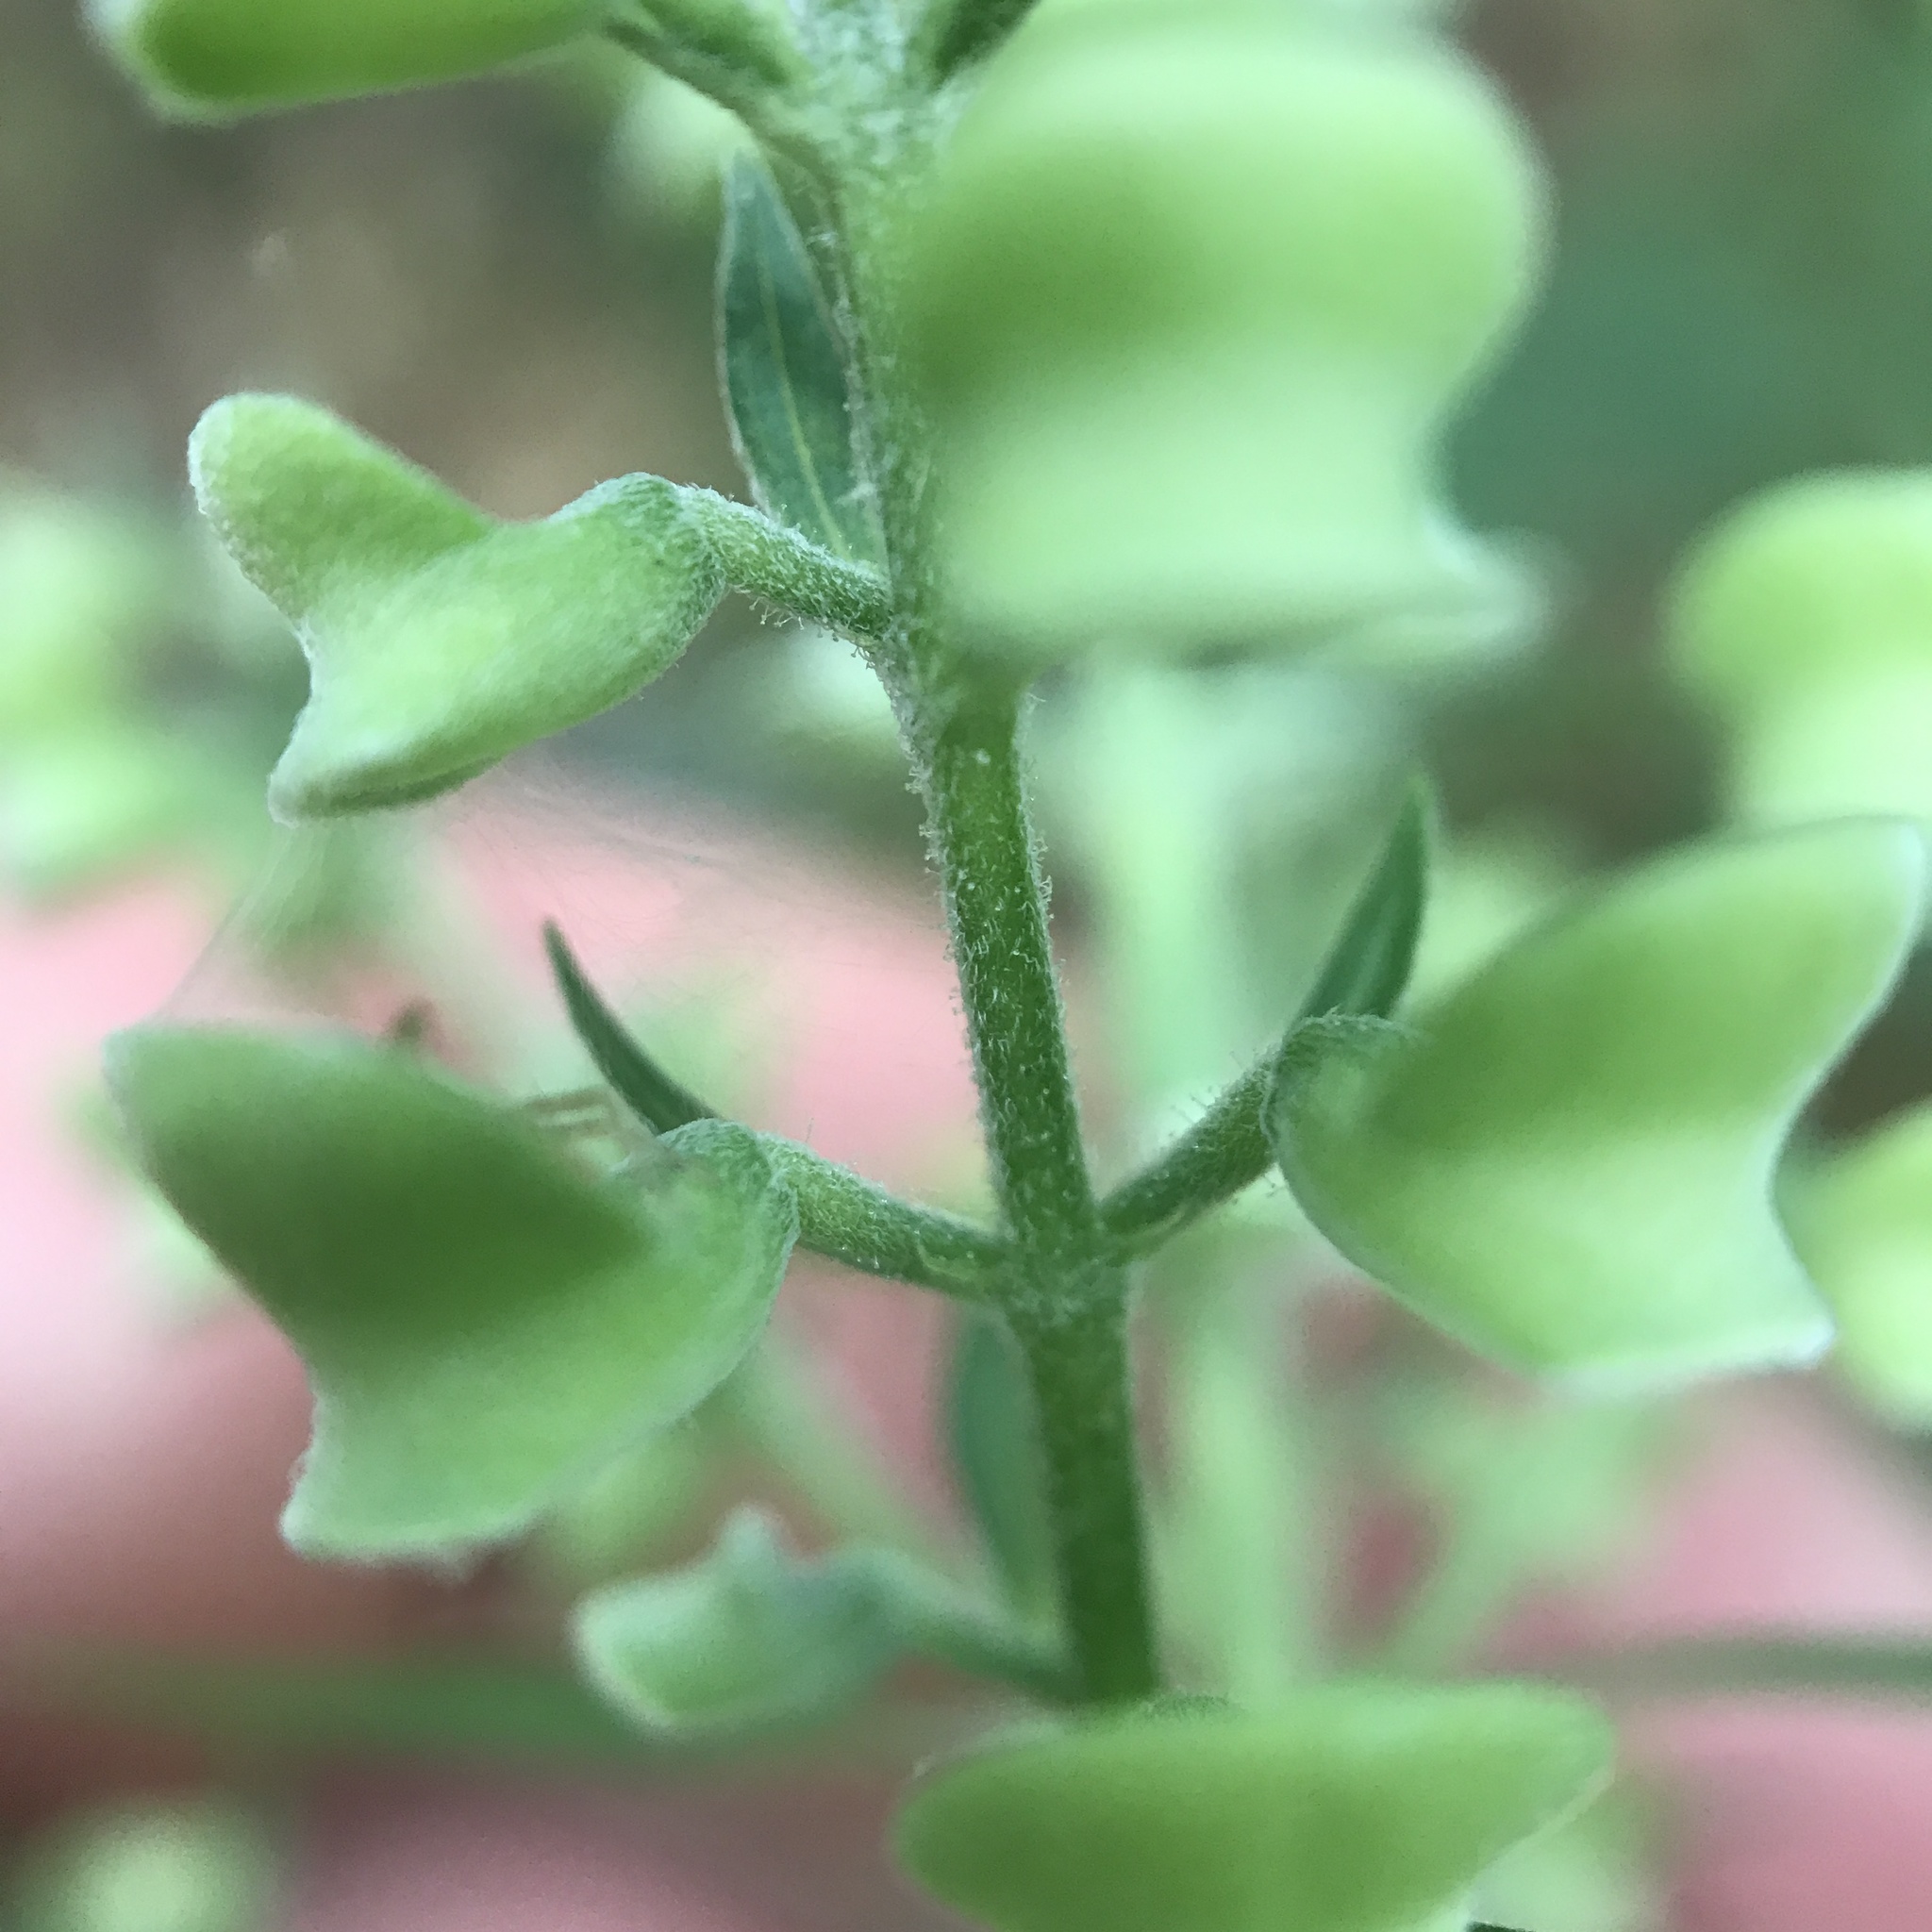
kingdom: Plantae
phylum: Tracheophyta
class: Magnoliopsida
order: Lamiales
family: Lamiaceae
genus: Scutellaria
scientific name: Scutellaria incana
